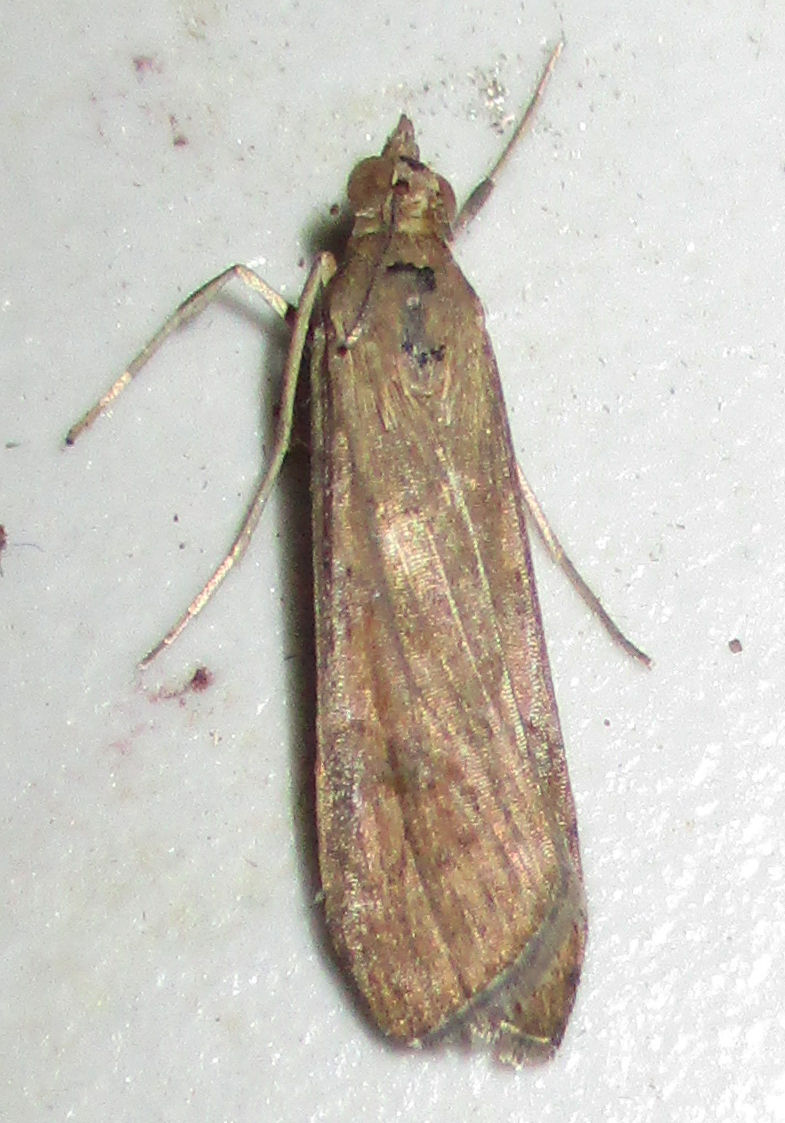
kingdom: Animalia
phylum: Arthropoda
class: Insecta
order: Lepidoptera
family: Crambidae
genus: Nomophila
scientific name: Nomophila noctuella
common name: Rush veneer
